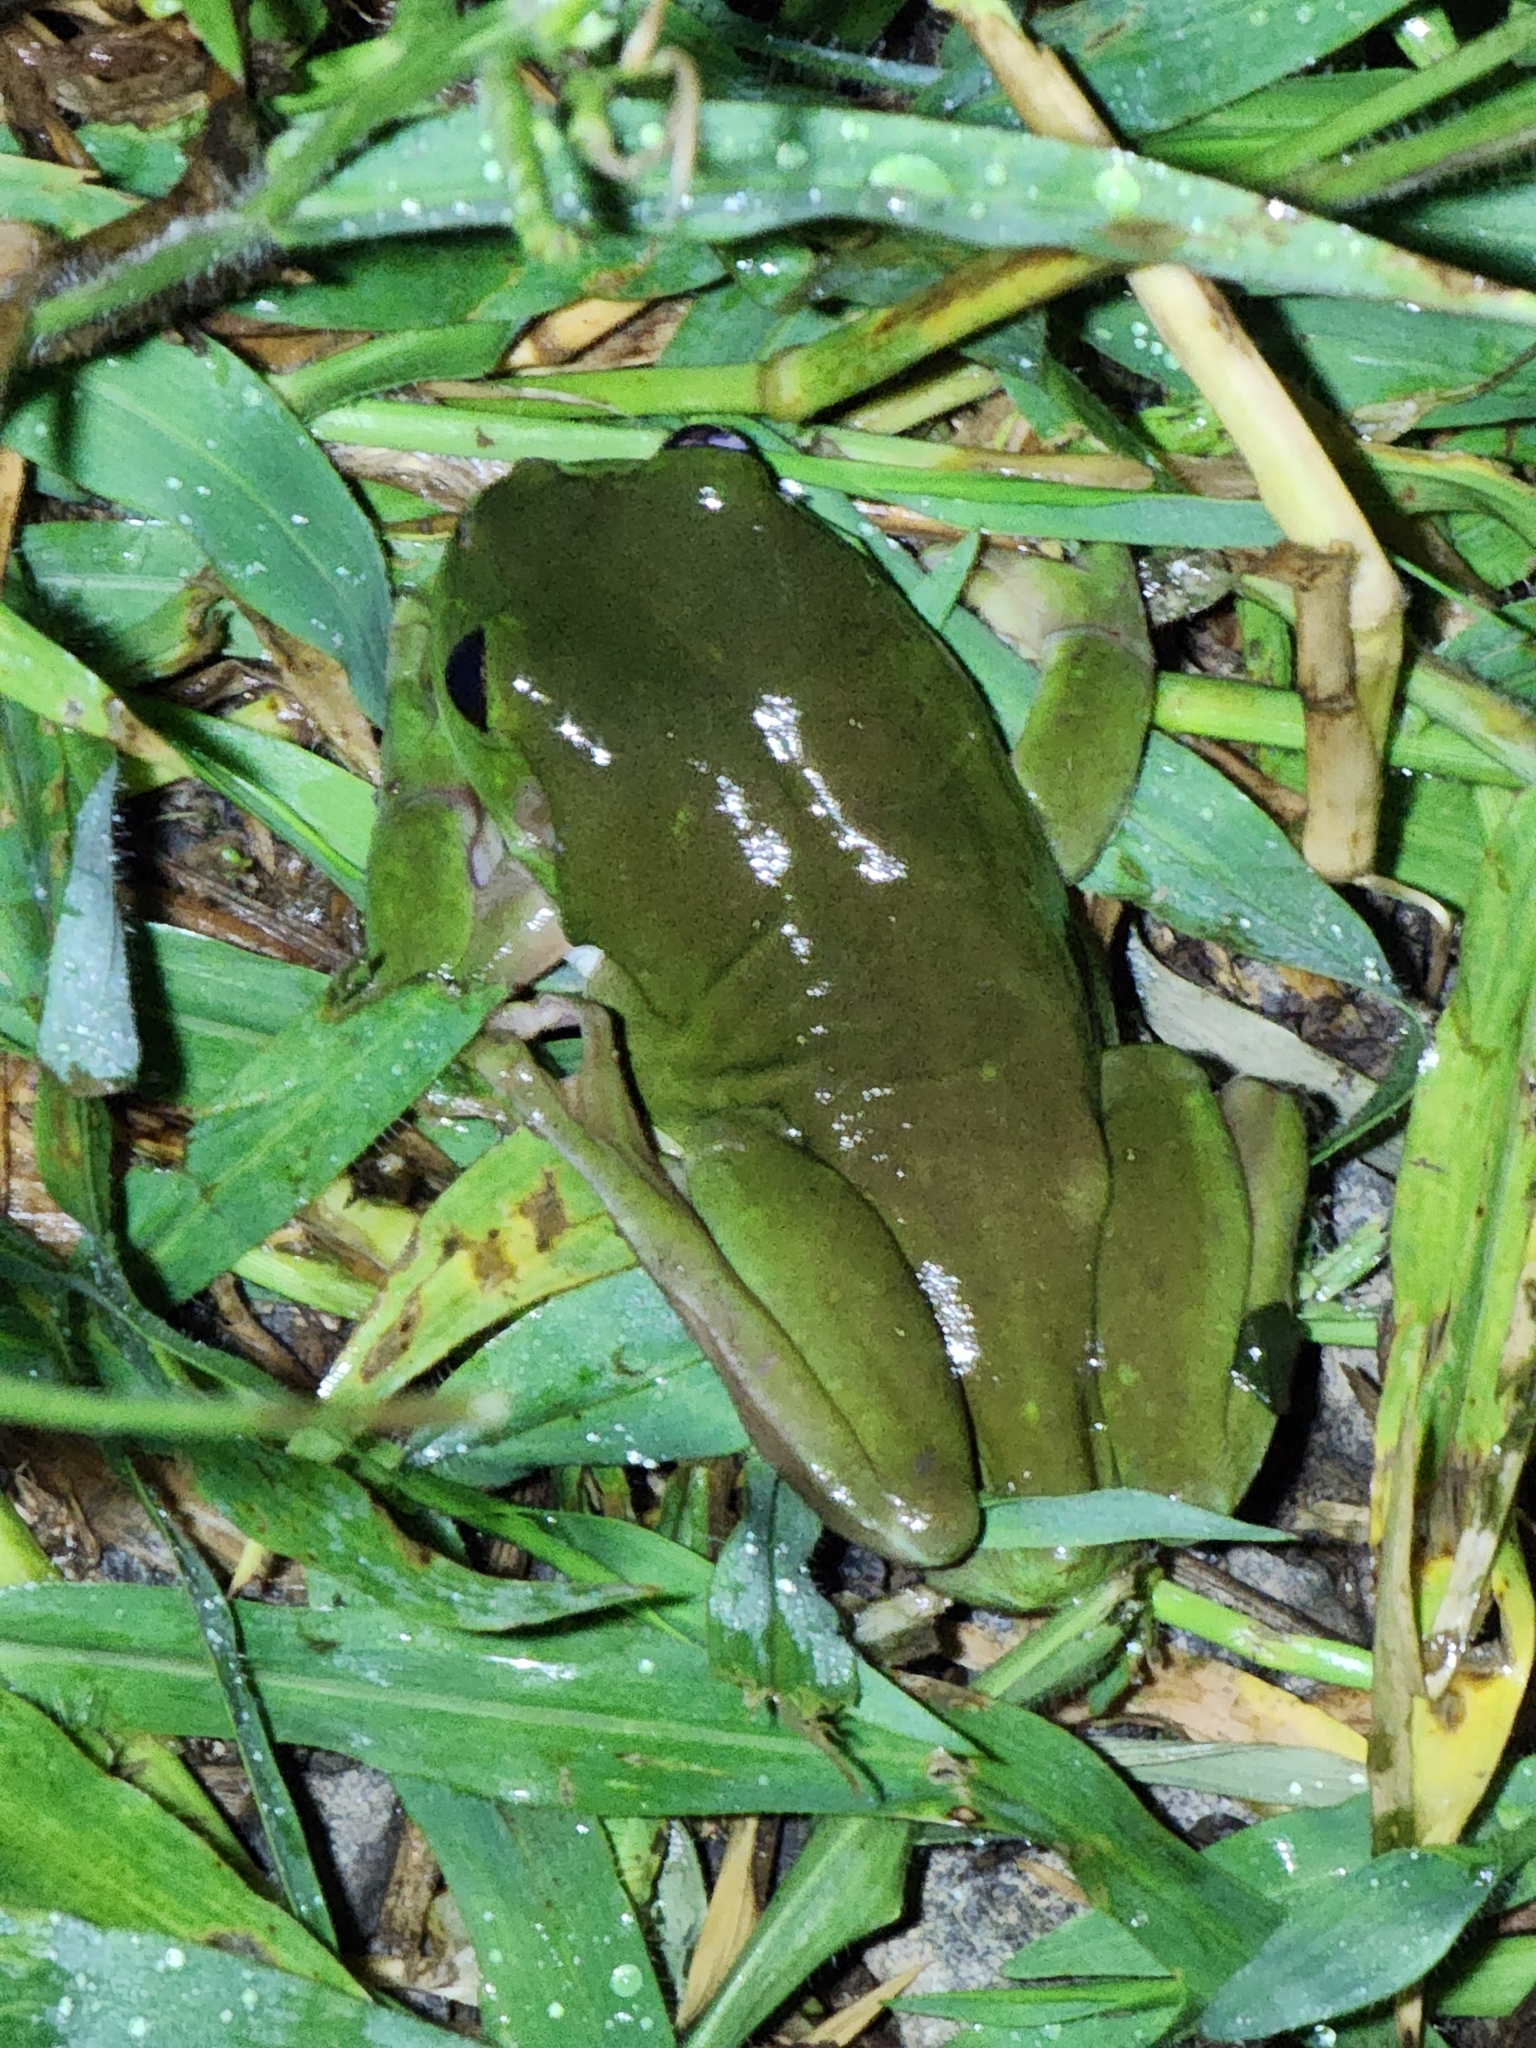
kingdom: Animalia
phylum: Chordata
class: Amphibia
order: Anura
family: Pelodryadidae
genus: Ranoidea
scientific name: Ranoidea caerulea
